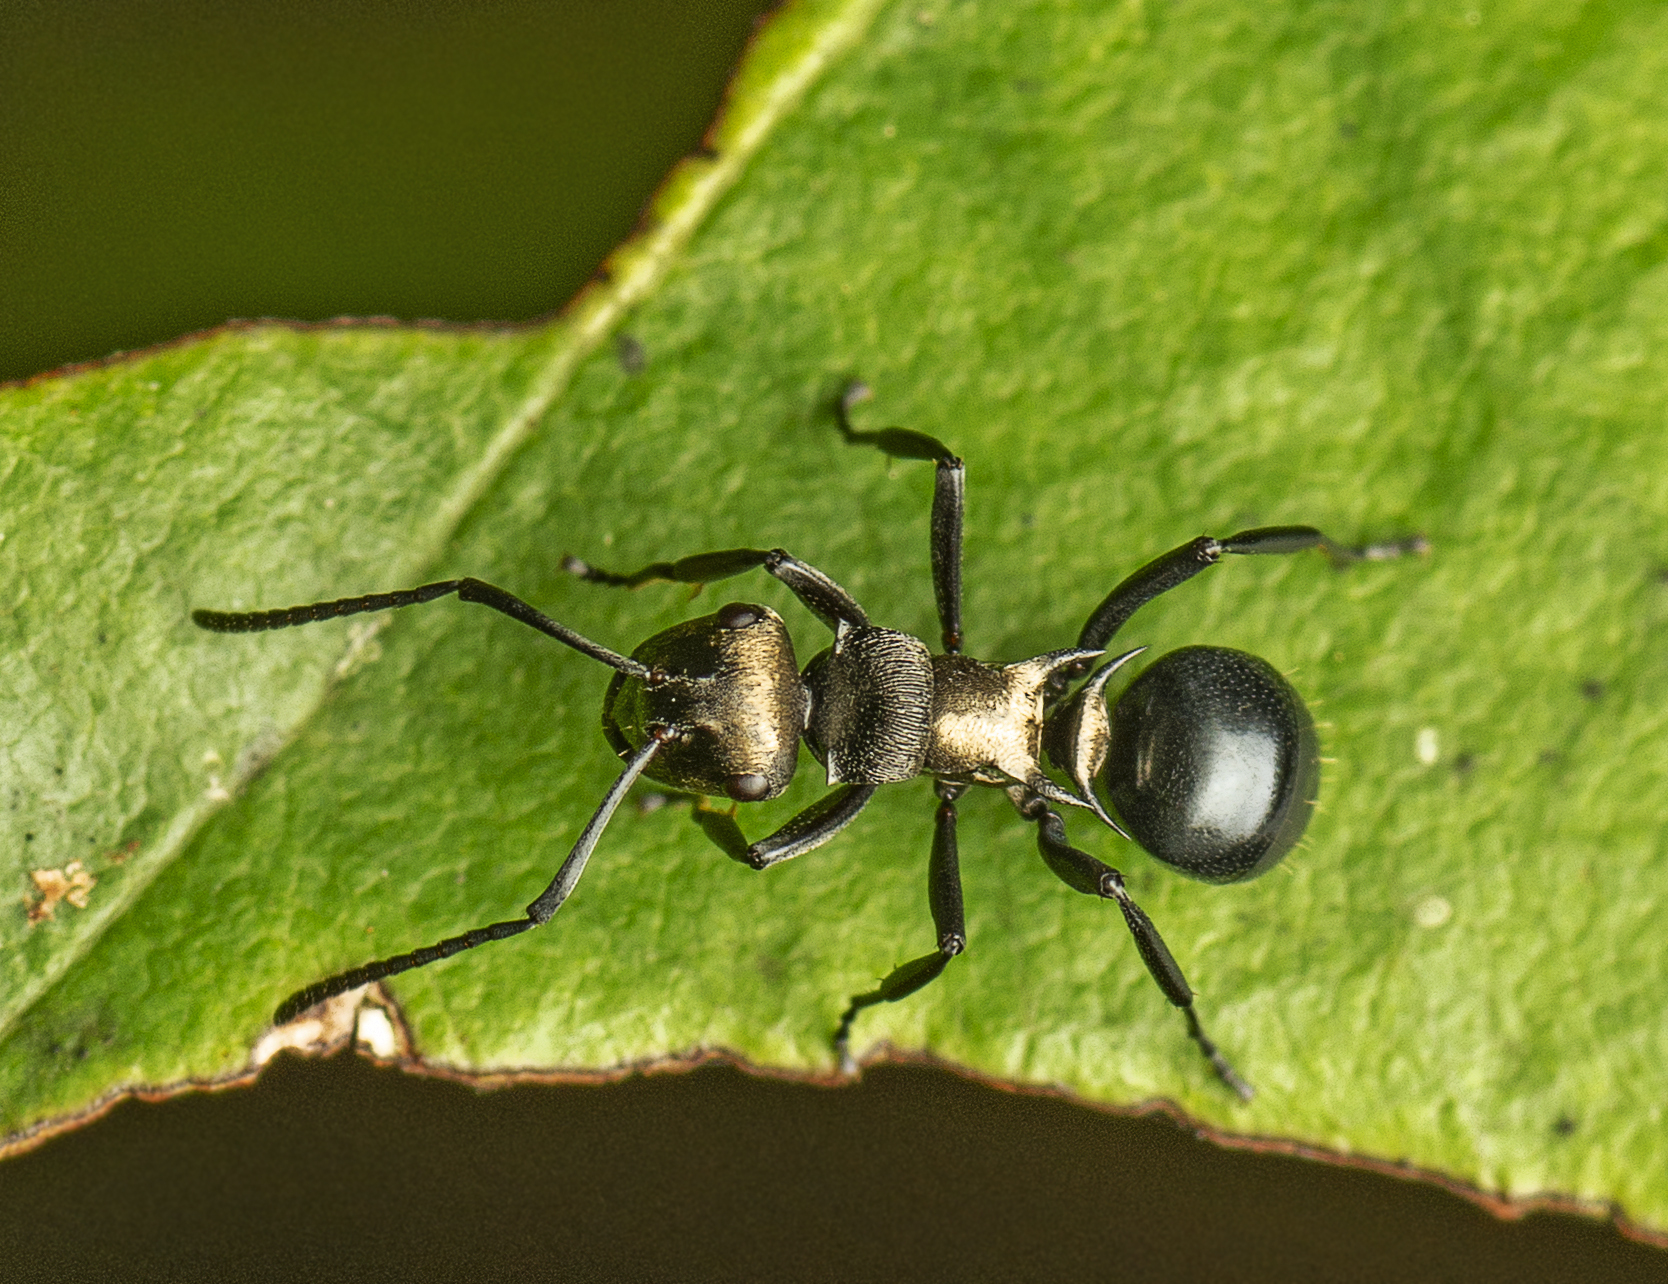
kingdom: Animalia
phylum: Arthropoda
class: Insecta
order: Hymenoptera
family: Formicidae
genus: Polyrhachis
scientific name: Polyrhachis cleopatra
